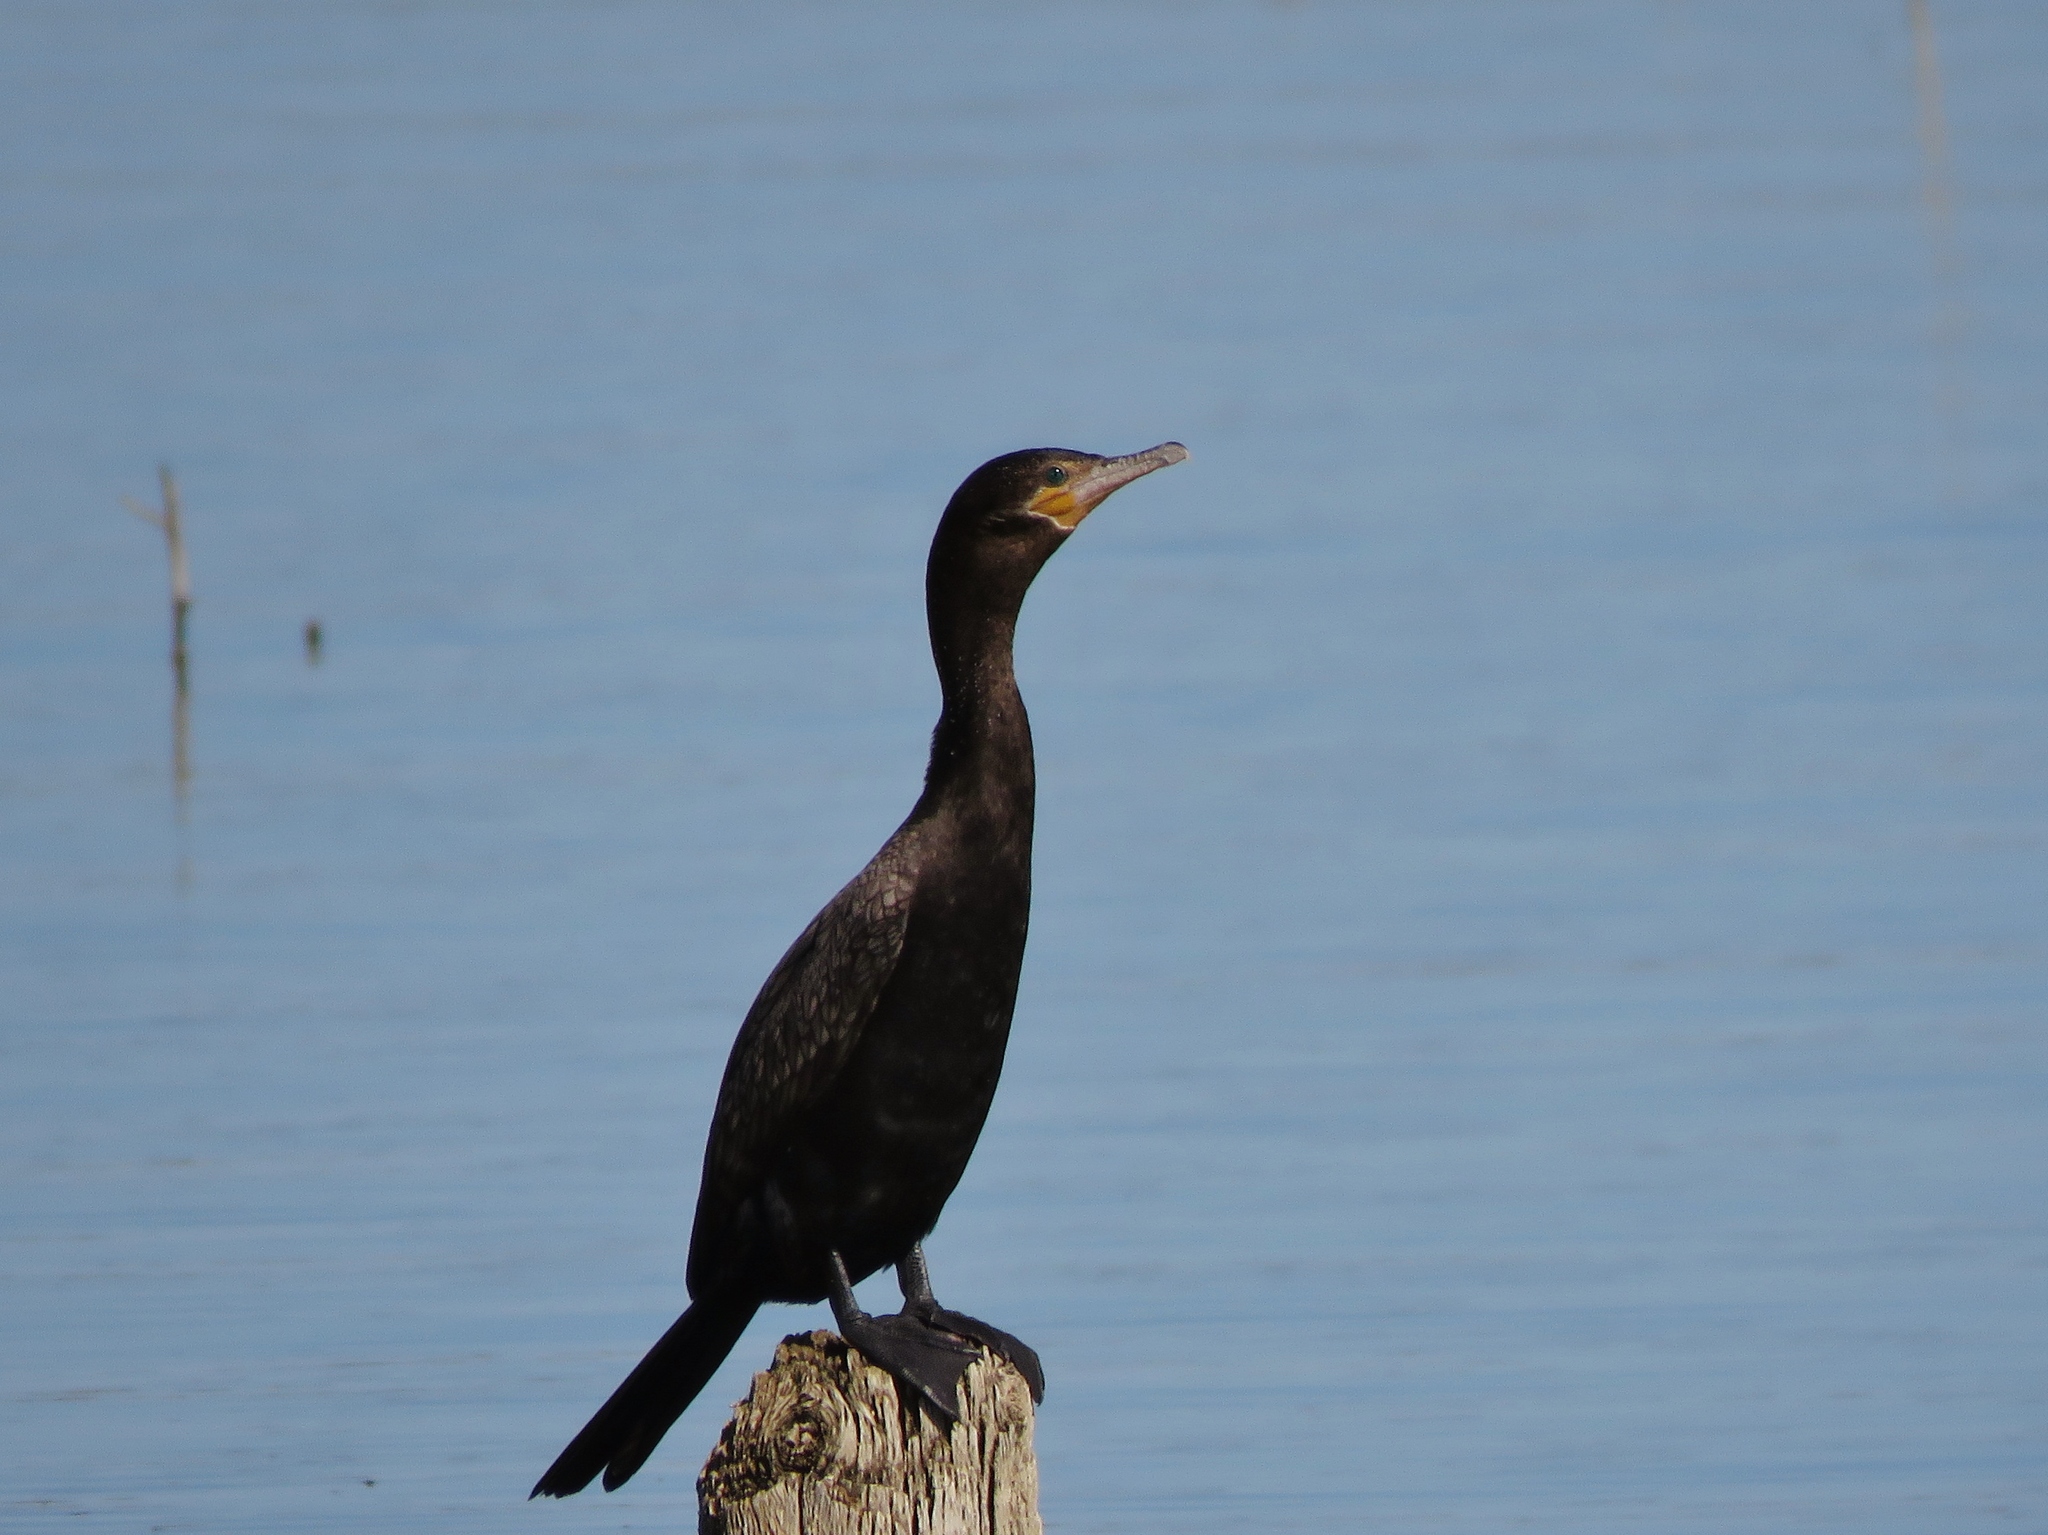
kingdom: Animalia
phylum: Chordata
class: Aves
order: Suliformes
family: Phalacrocoracidae
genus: Phalacrocorax
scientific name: Phalacrocorax brasilianus
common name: Neotropic cormorant
